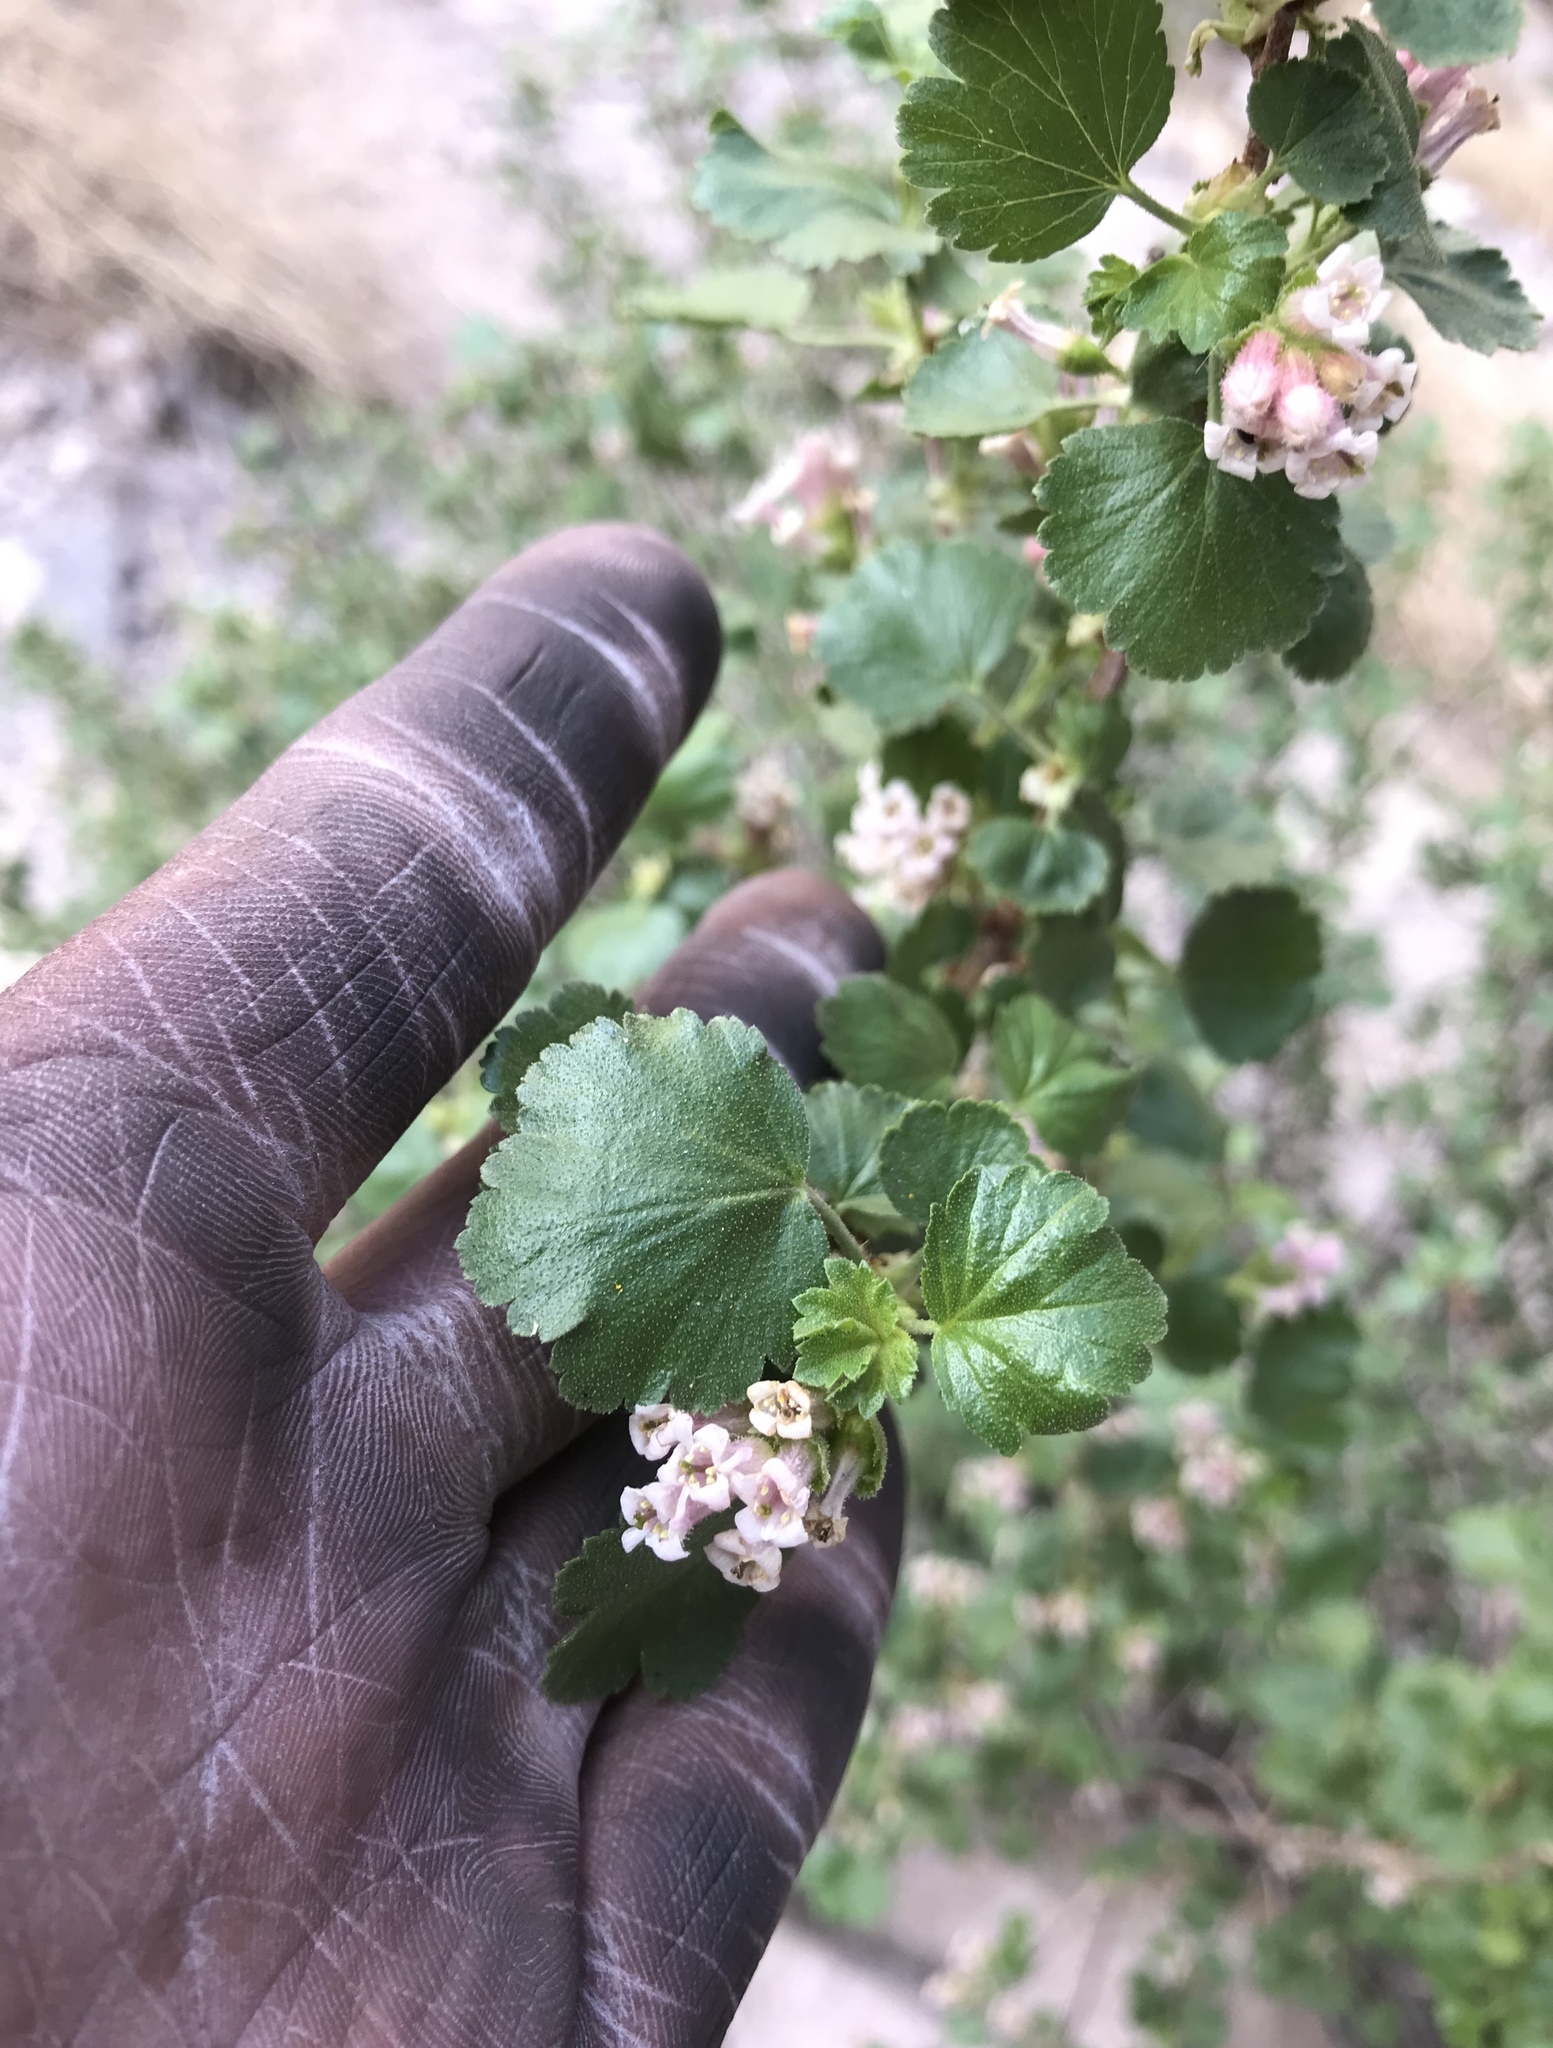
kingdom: Plantae
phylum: Tracheophyta
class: Magnoliopsida
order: Saxifragales
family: Grossulariaceae
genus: Ribes
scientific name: Ribes cereum
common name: Wax currant
